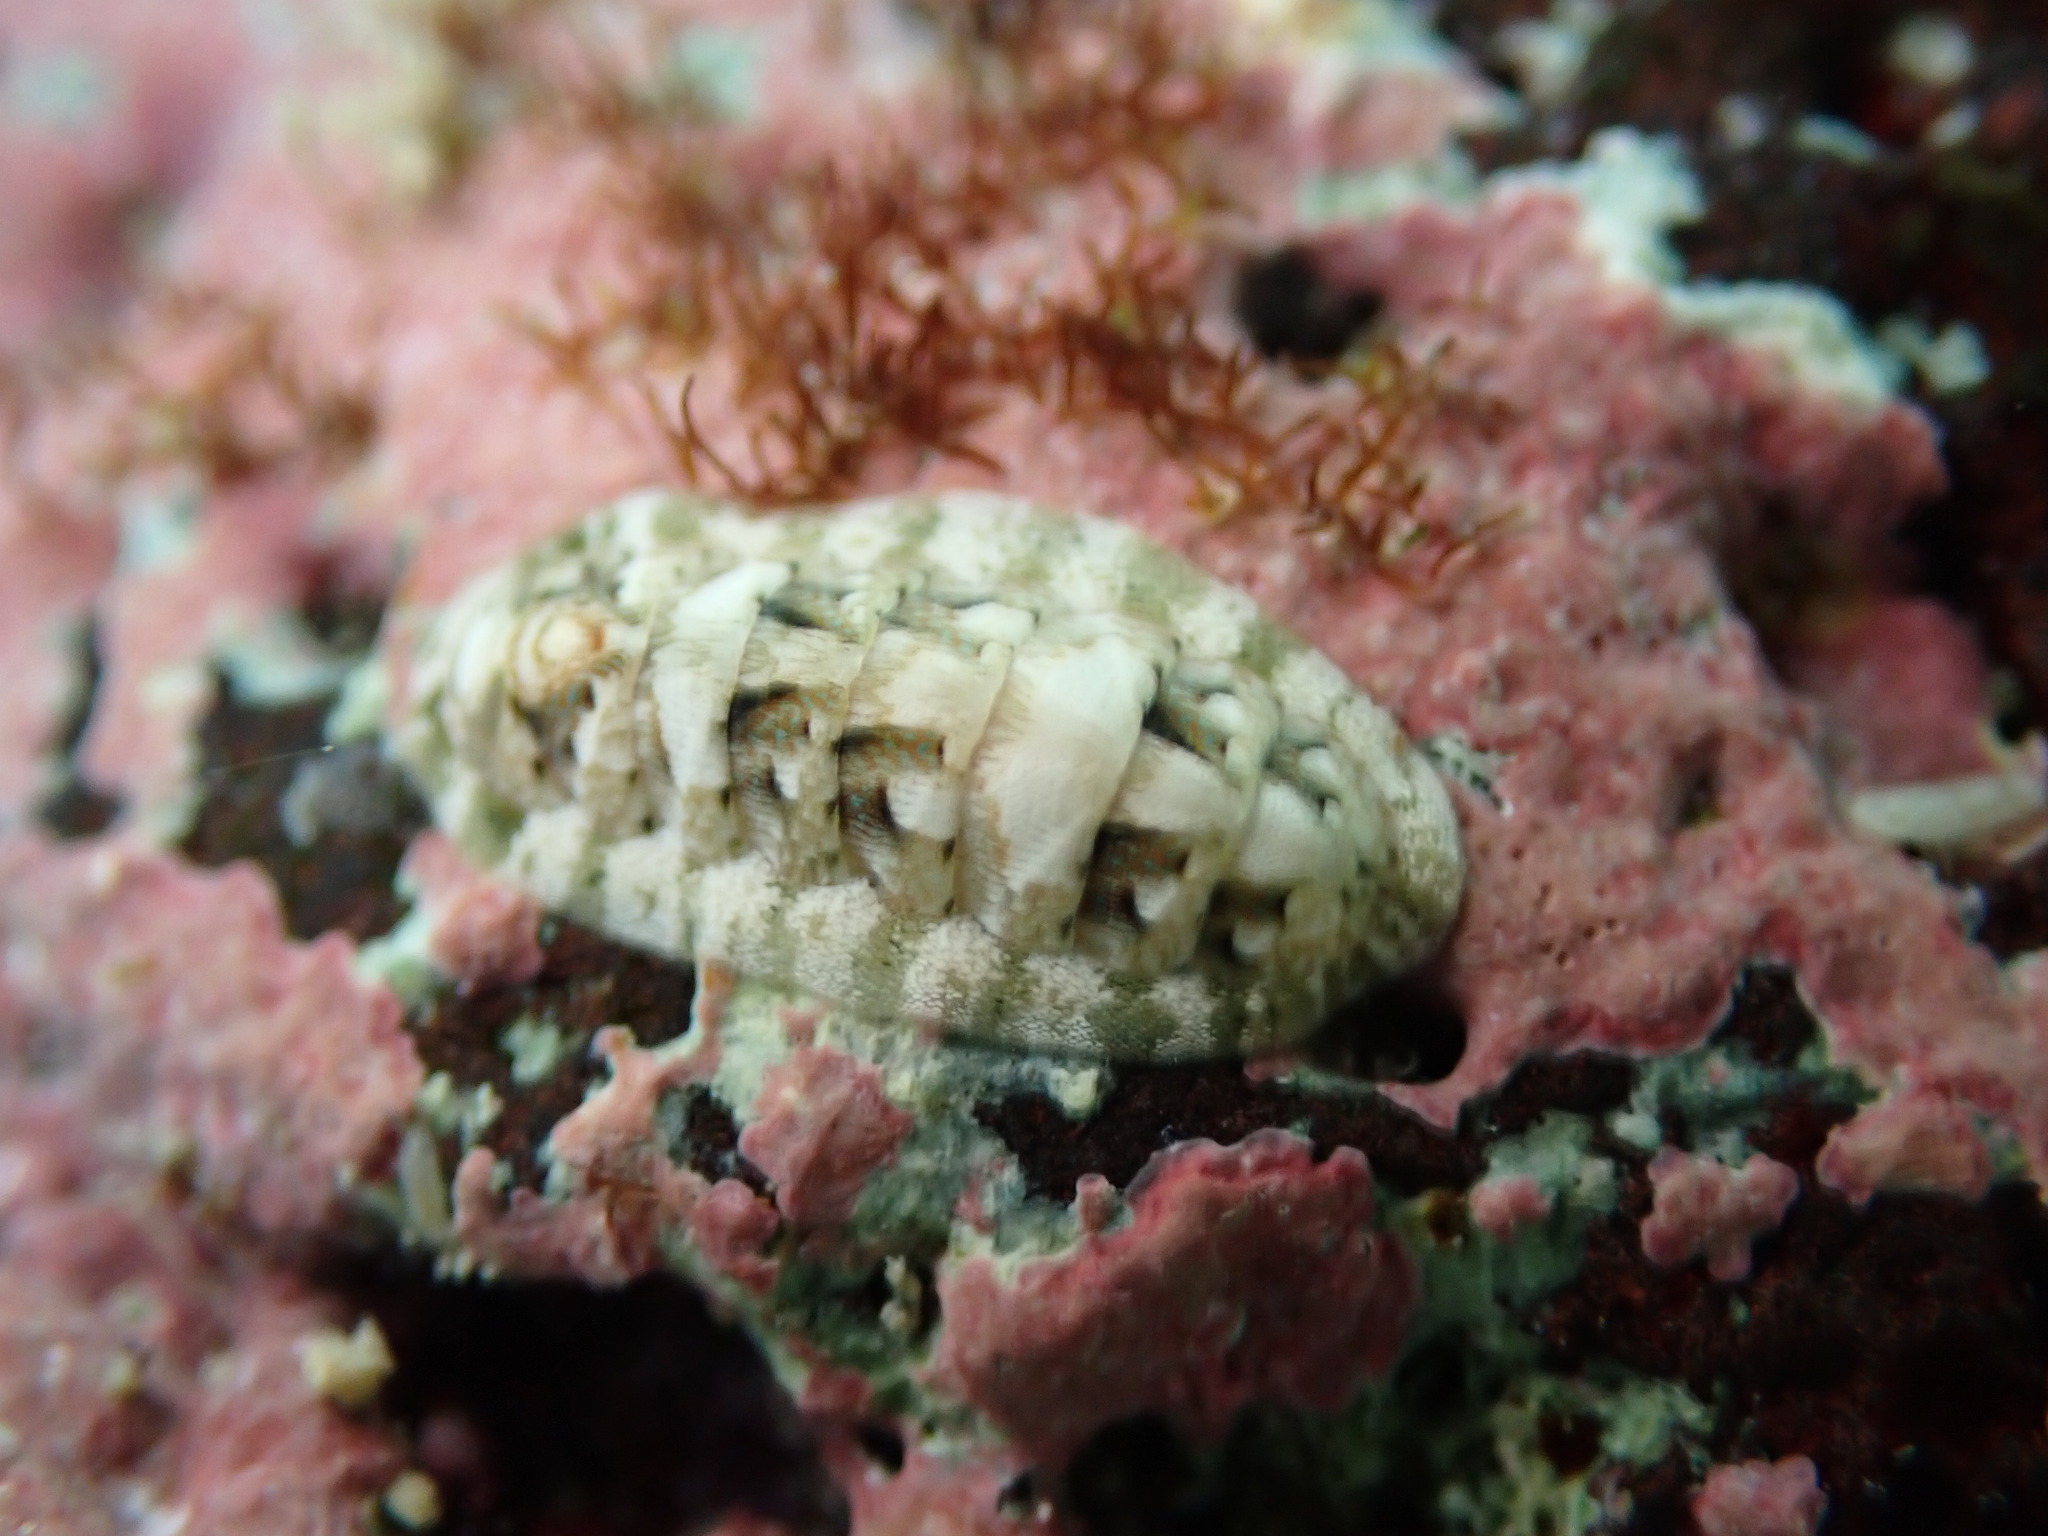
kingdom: Animalia
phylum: Mollusca
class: Polyplacophora
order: Chitonida
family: Ischnochitonidae
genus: Stenoplax
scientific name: Stenoplax petaloides
